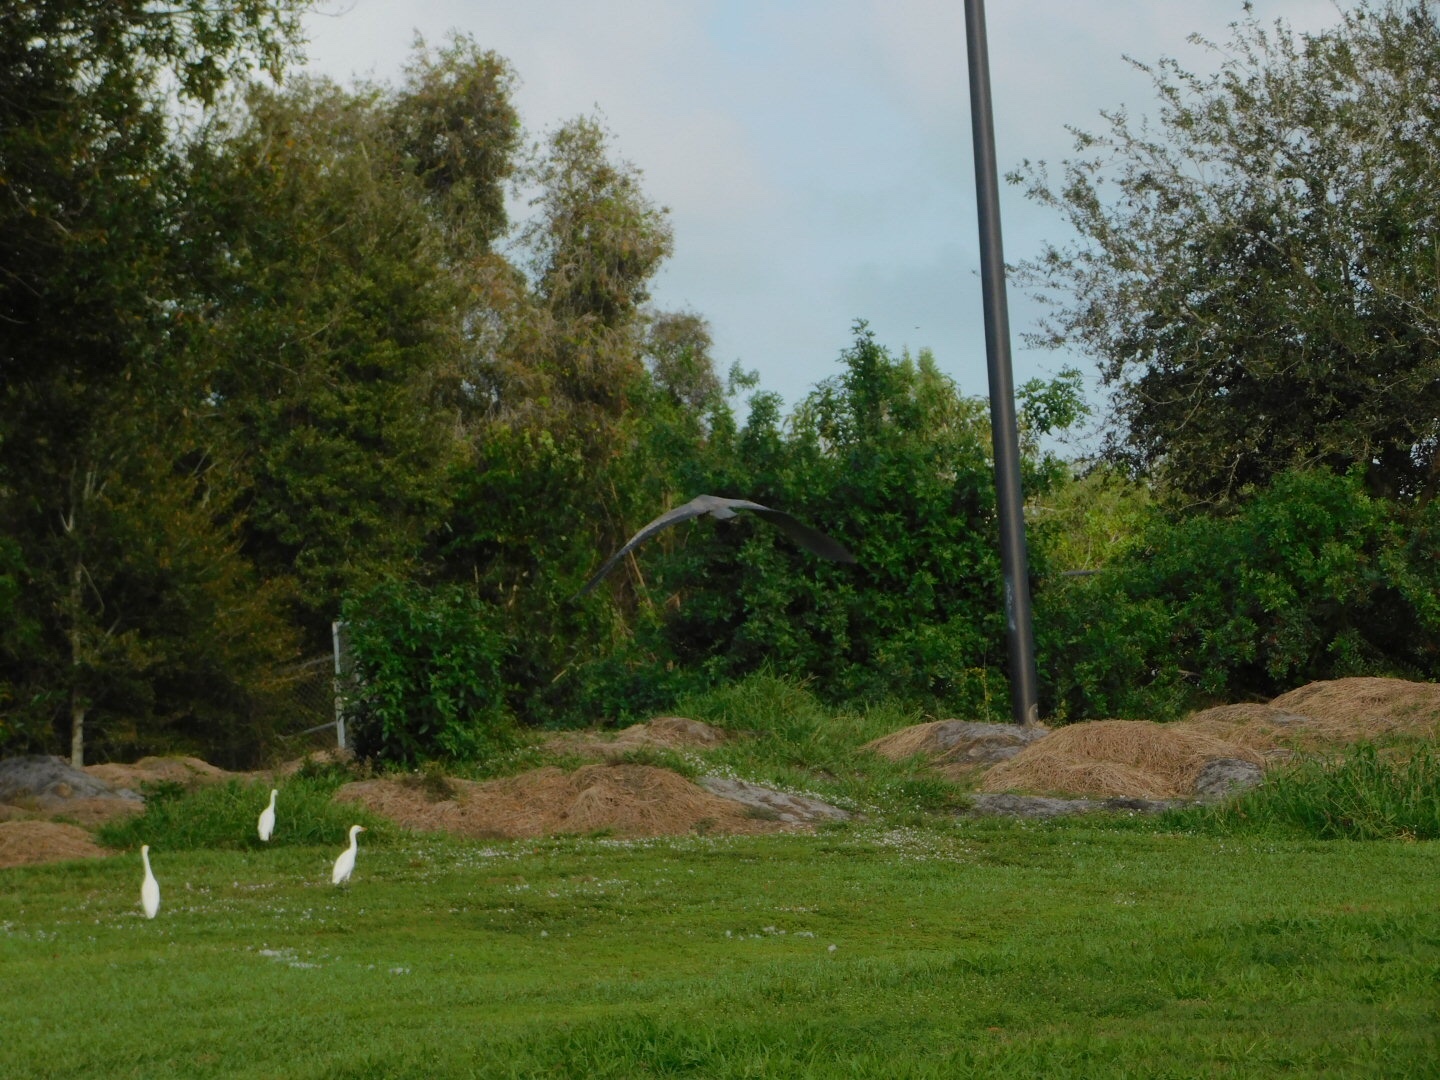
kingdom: Animalia
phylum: Chordata
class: Aves
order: Pelecaniformes
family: Ardeidae
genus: Ardea
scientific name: Ardea herodias
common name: Great blue heron
